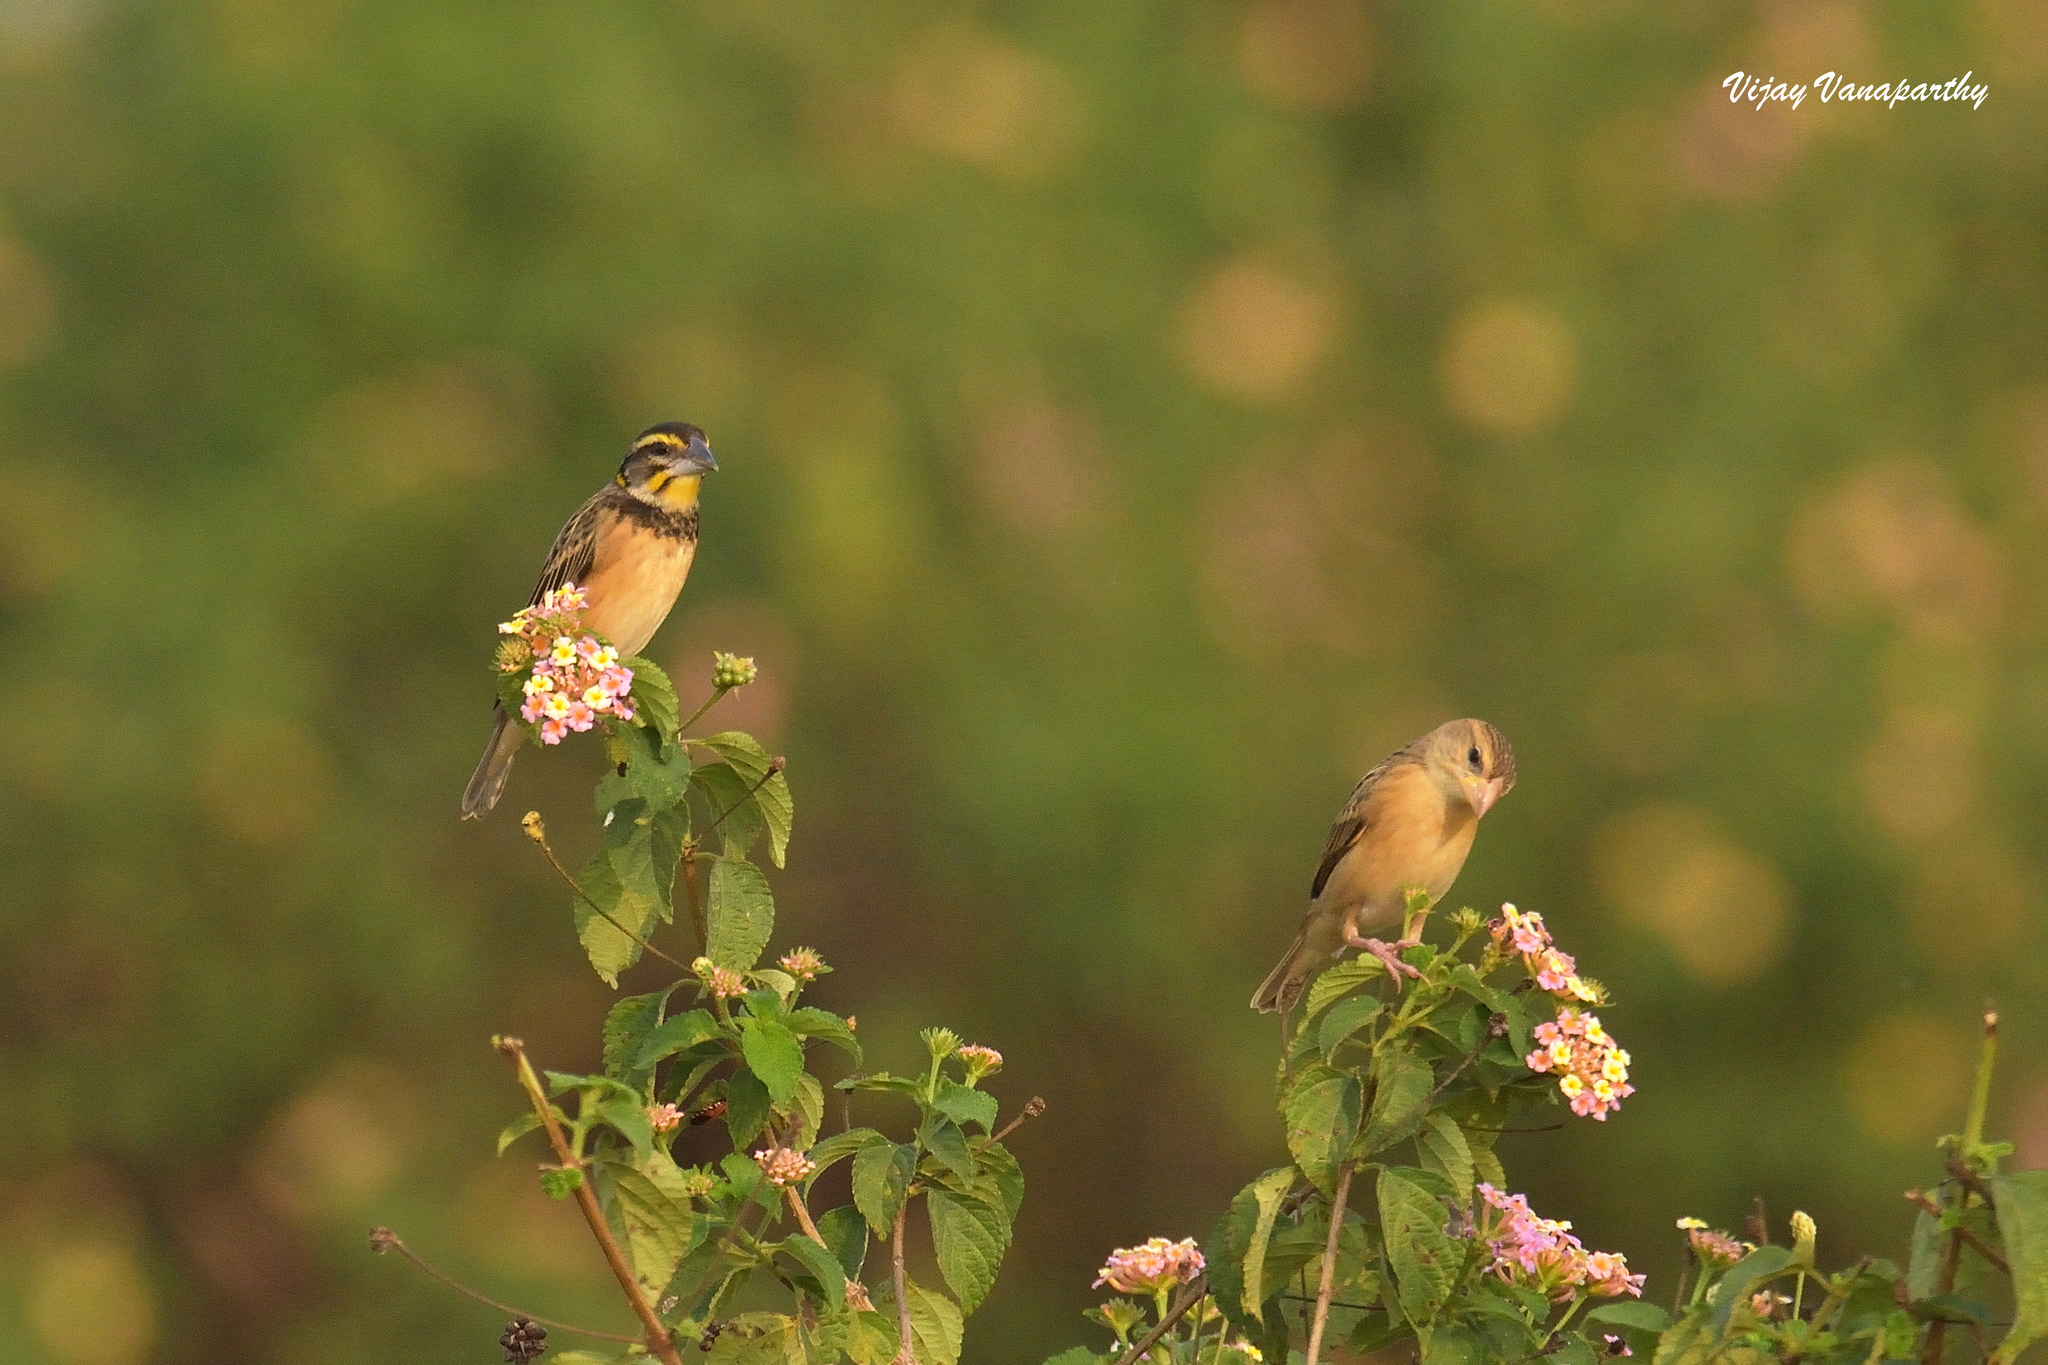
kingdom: Animalia
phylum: Chordata
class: Aves
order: Passeriformes
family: Ploceidae
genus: Ploceus
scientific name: Ploceus benghalensis
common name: Black-breasted weaver
